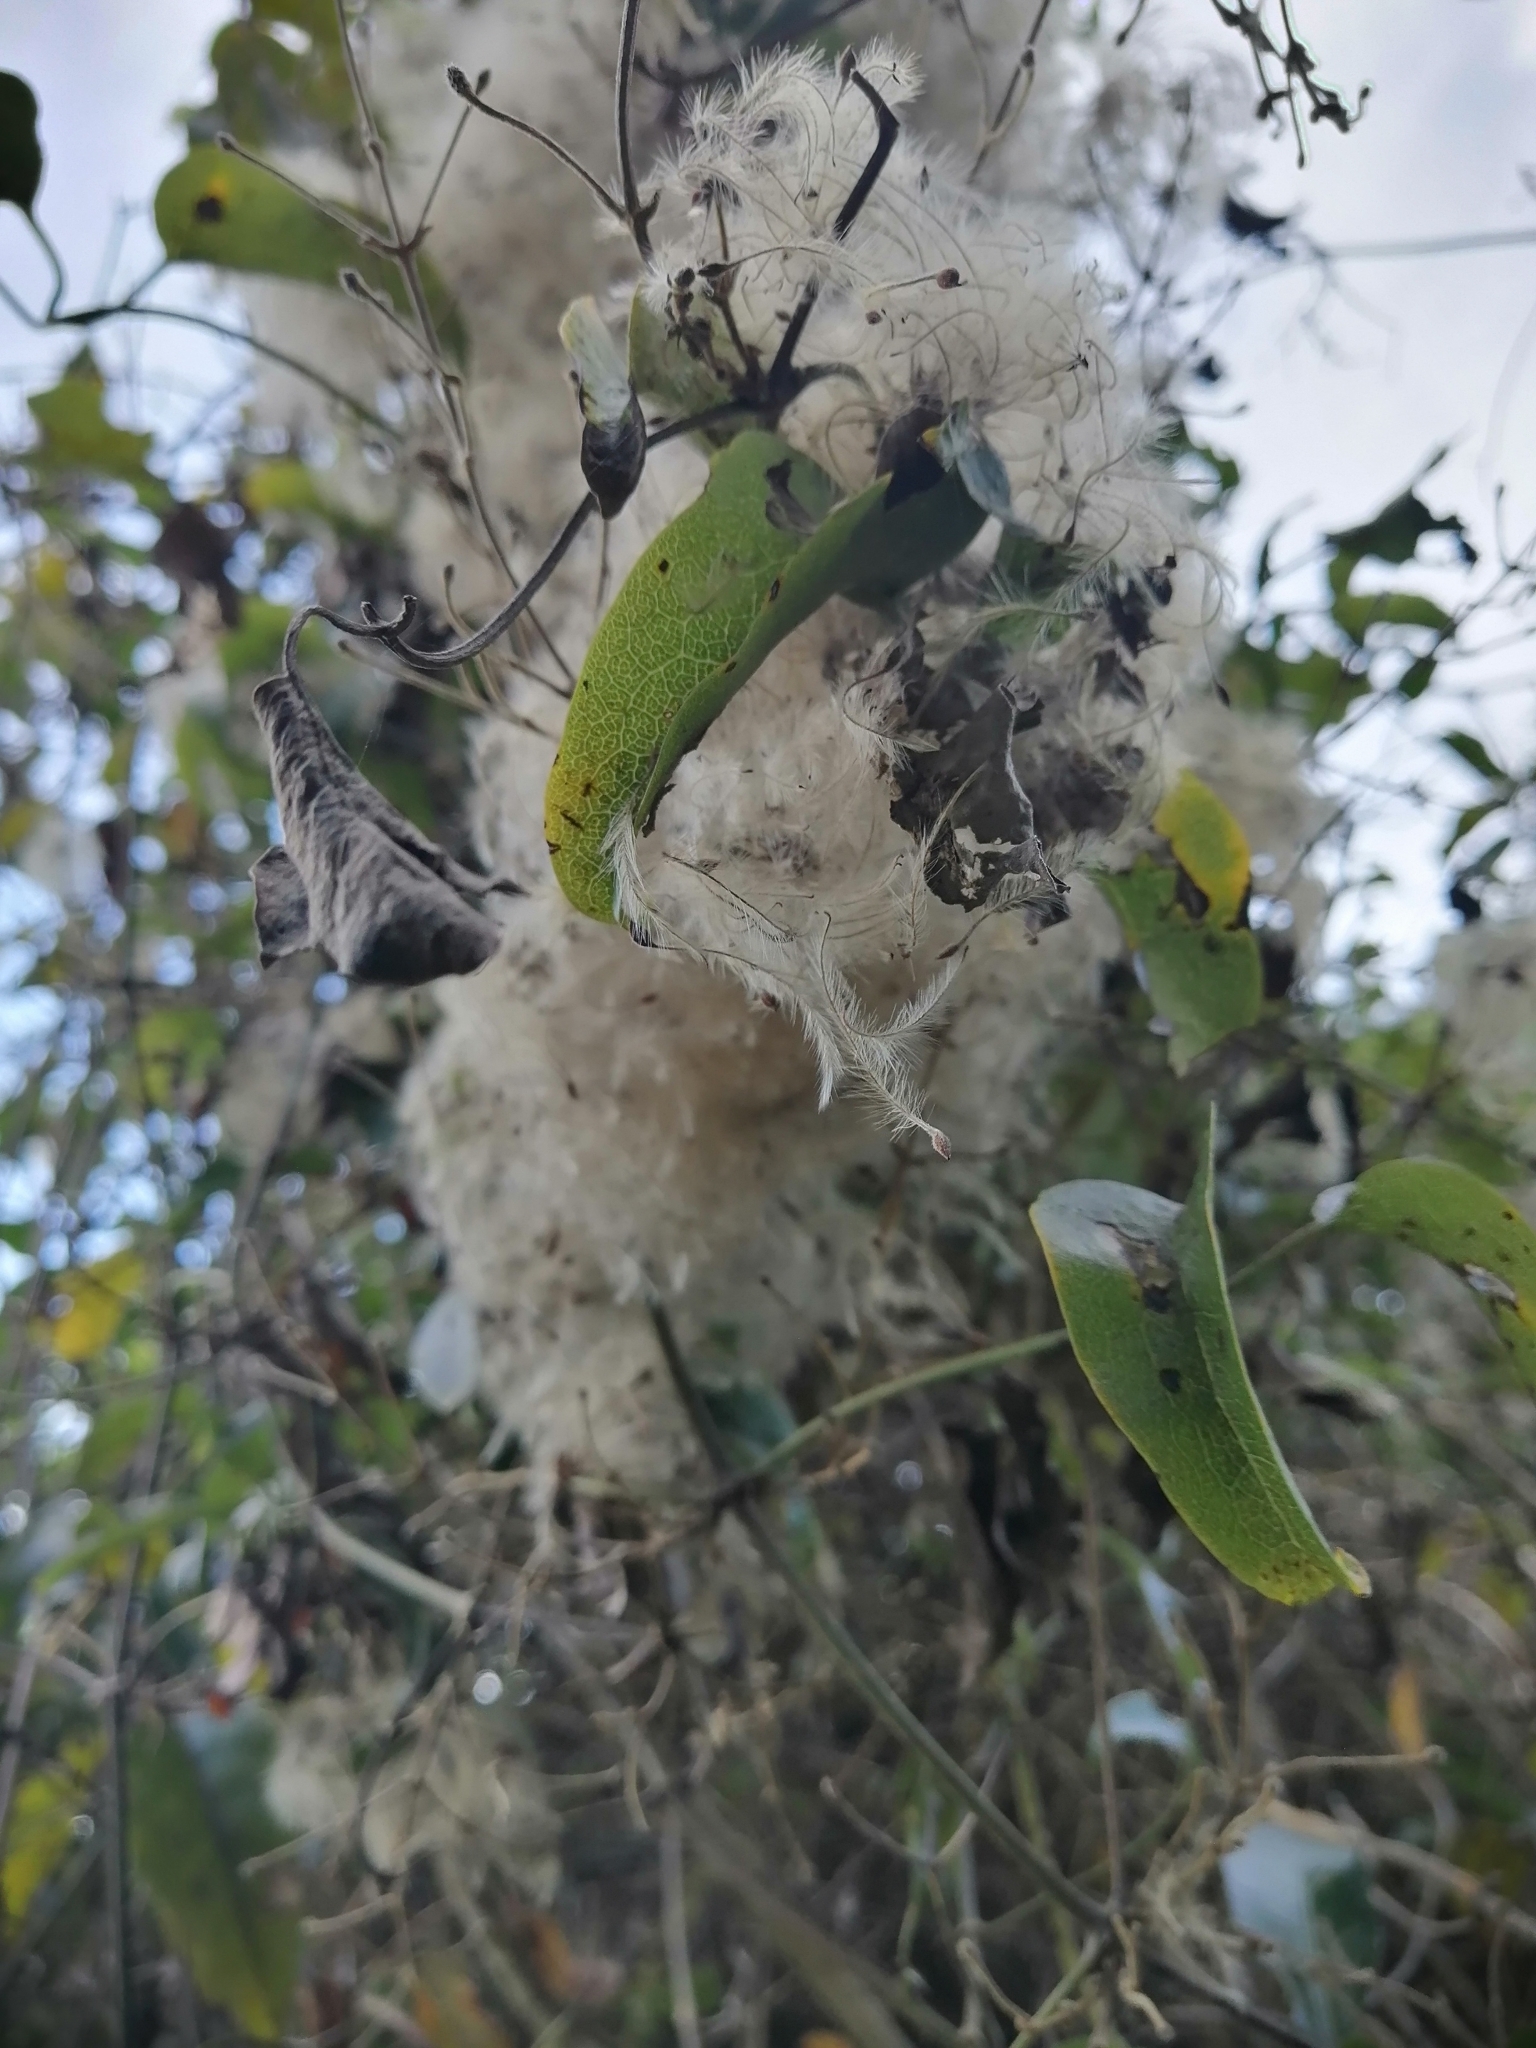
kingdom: Plantae
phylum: Tracheophyta
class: Magnoliopsida
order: Ranunculales
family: Ranunculaceae
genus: Clematis
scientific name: Clematis paniculata
